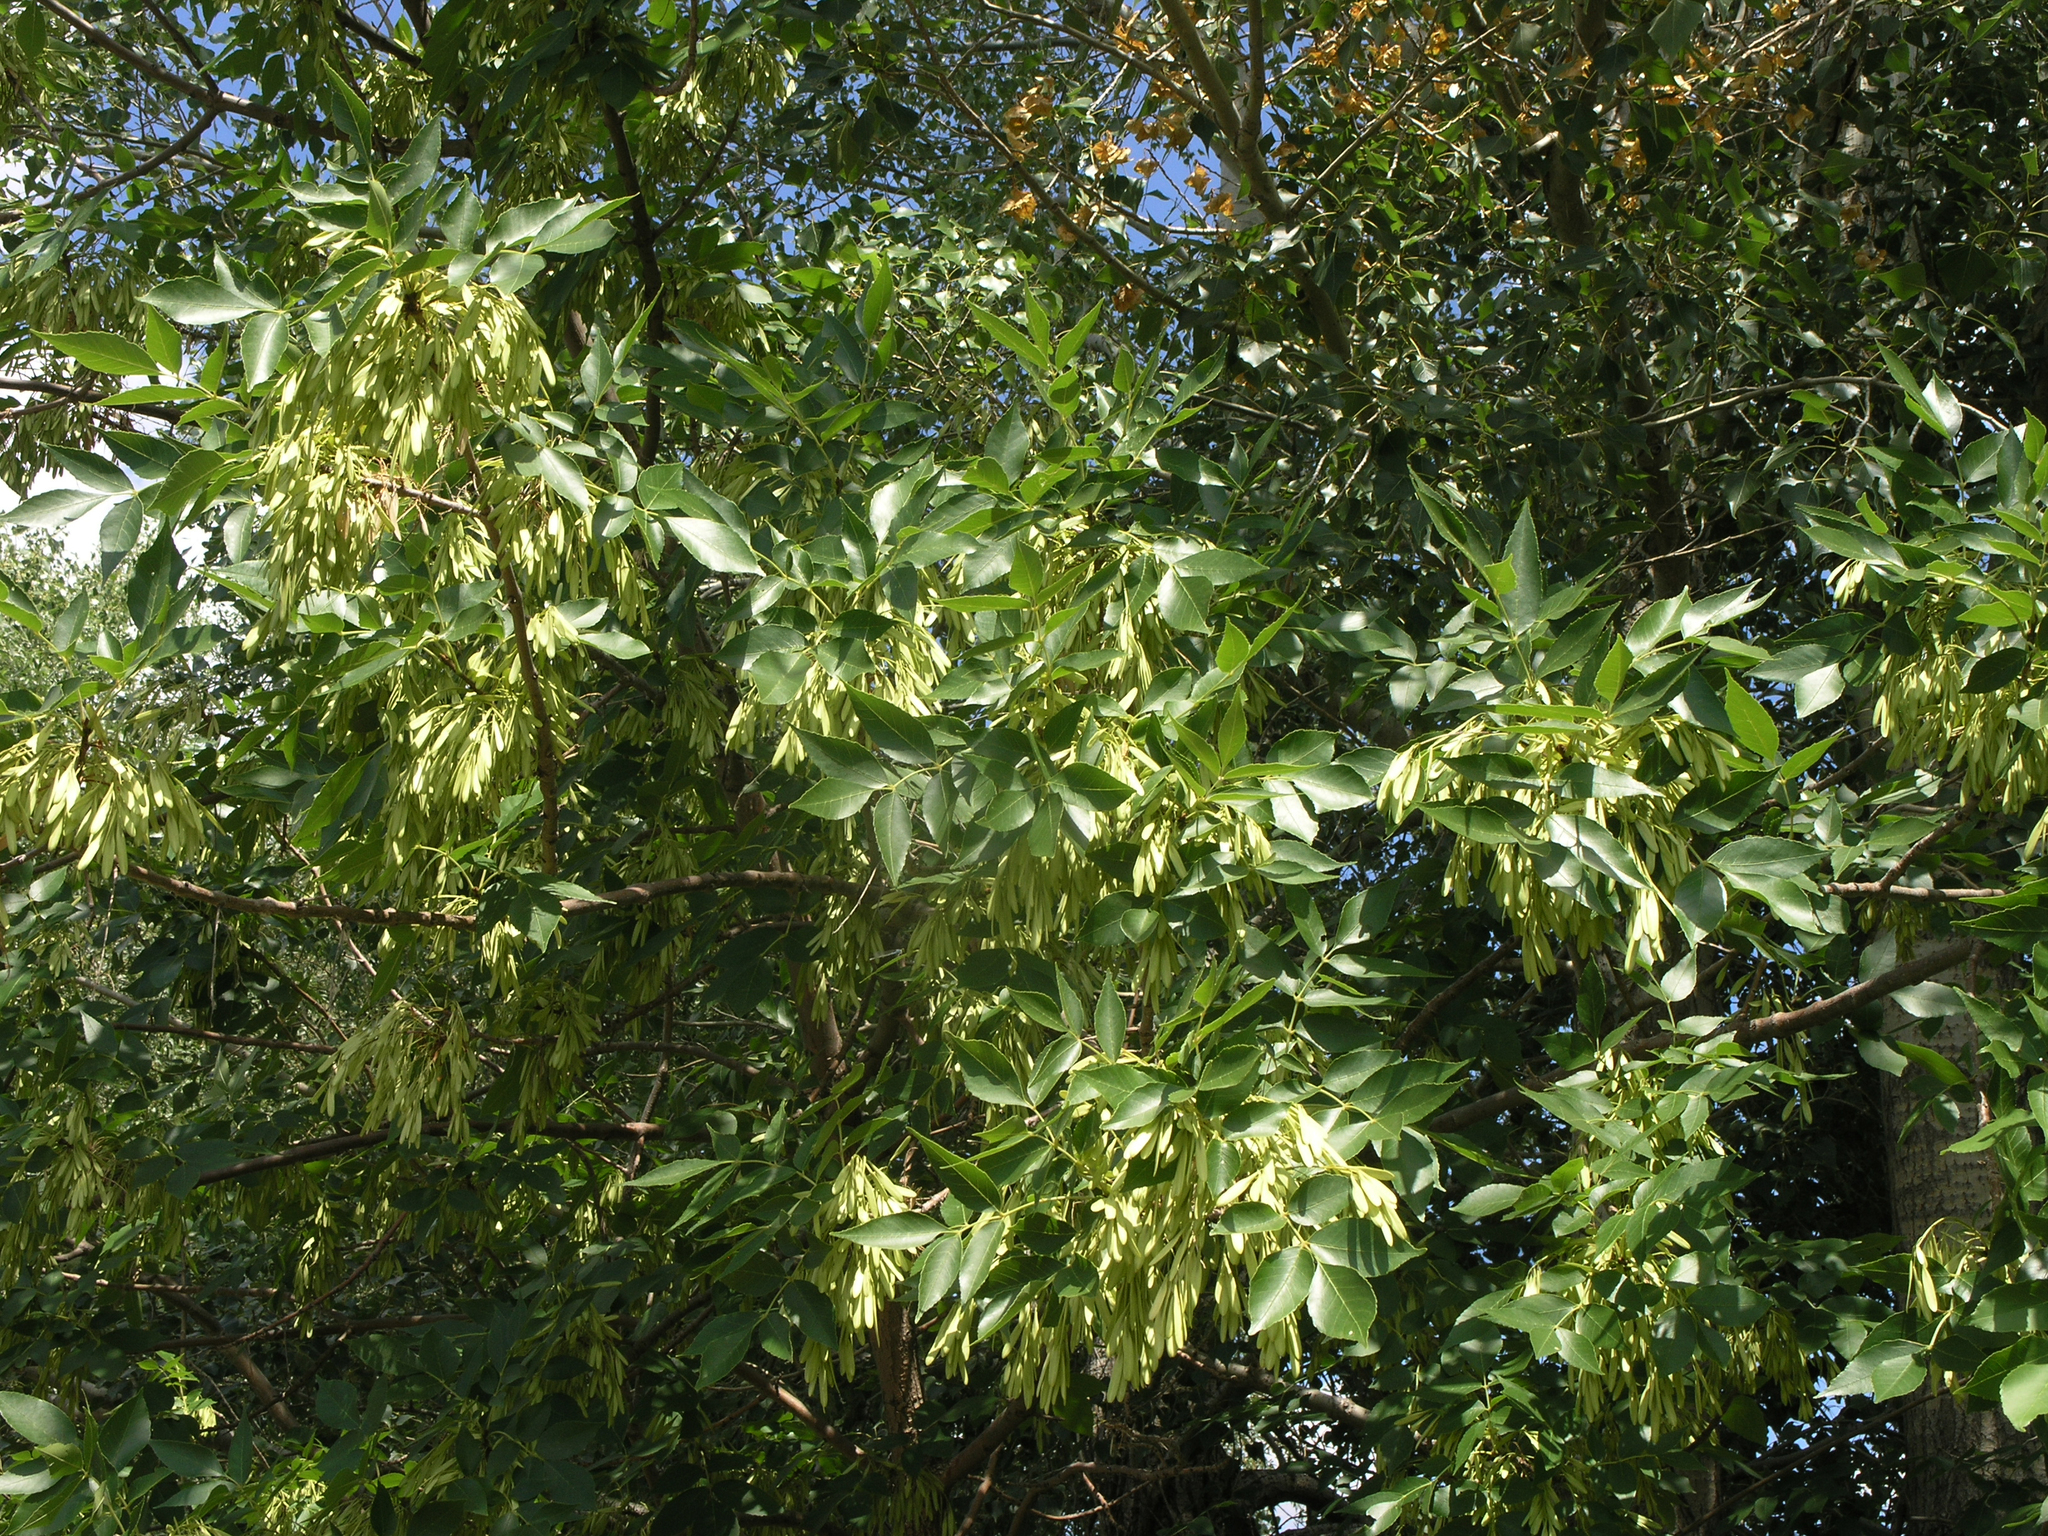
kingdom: Plantae
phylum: Tracheophyta
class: Magnoliopsida
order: Lamiales
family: Oleaceae
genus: Fraxinus
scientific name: Fraxinus pennsylvanica
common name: Green ash
